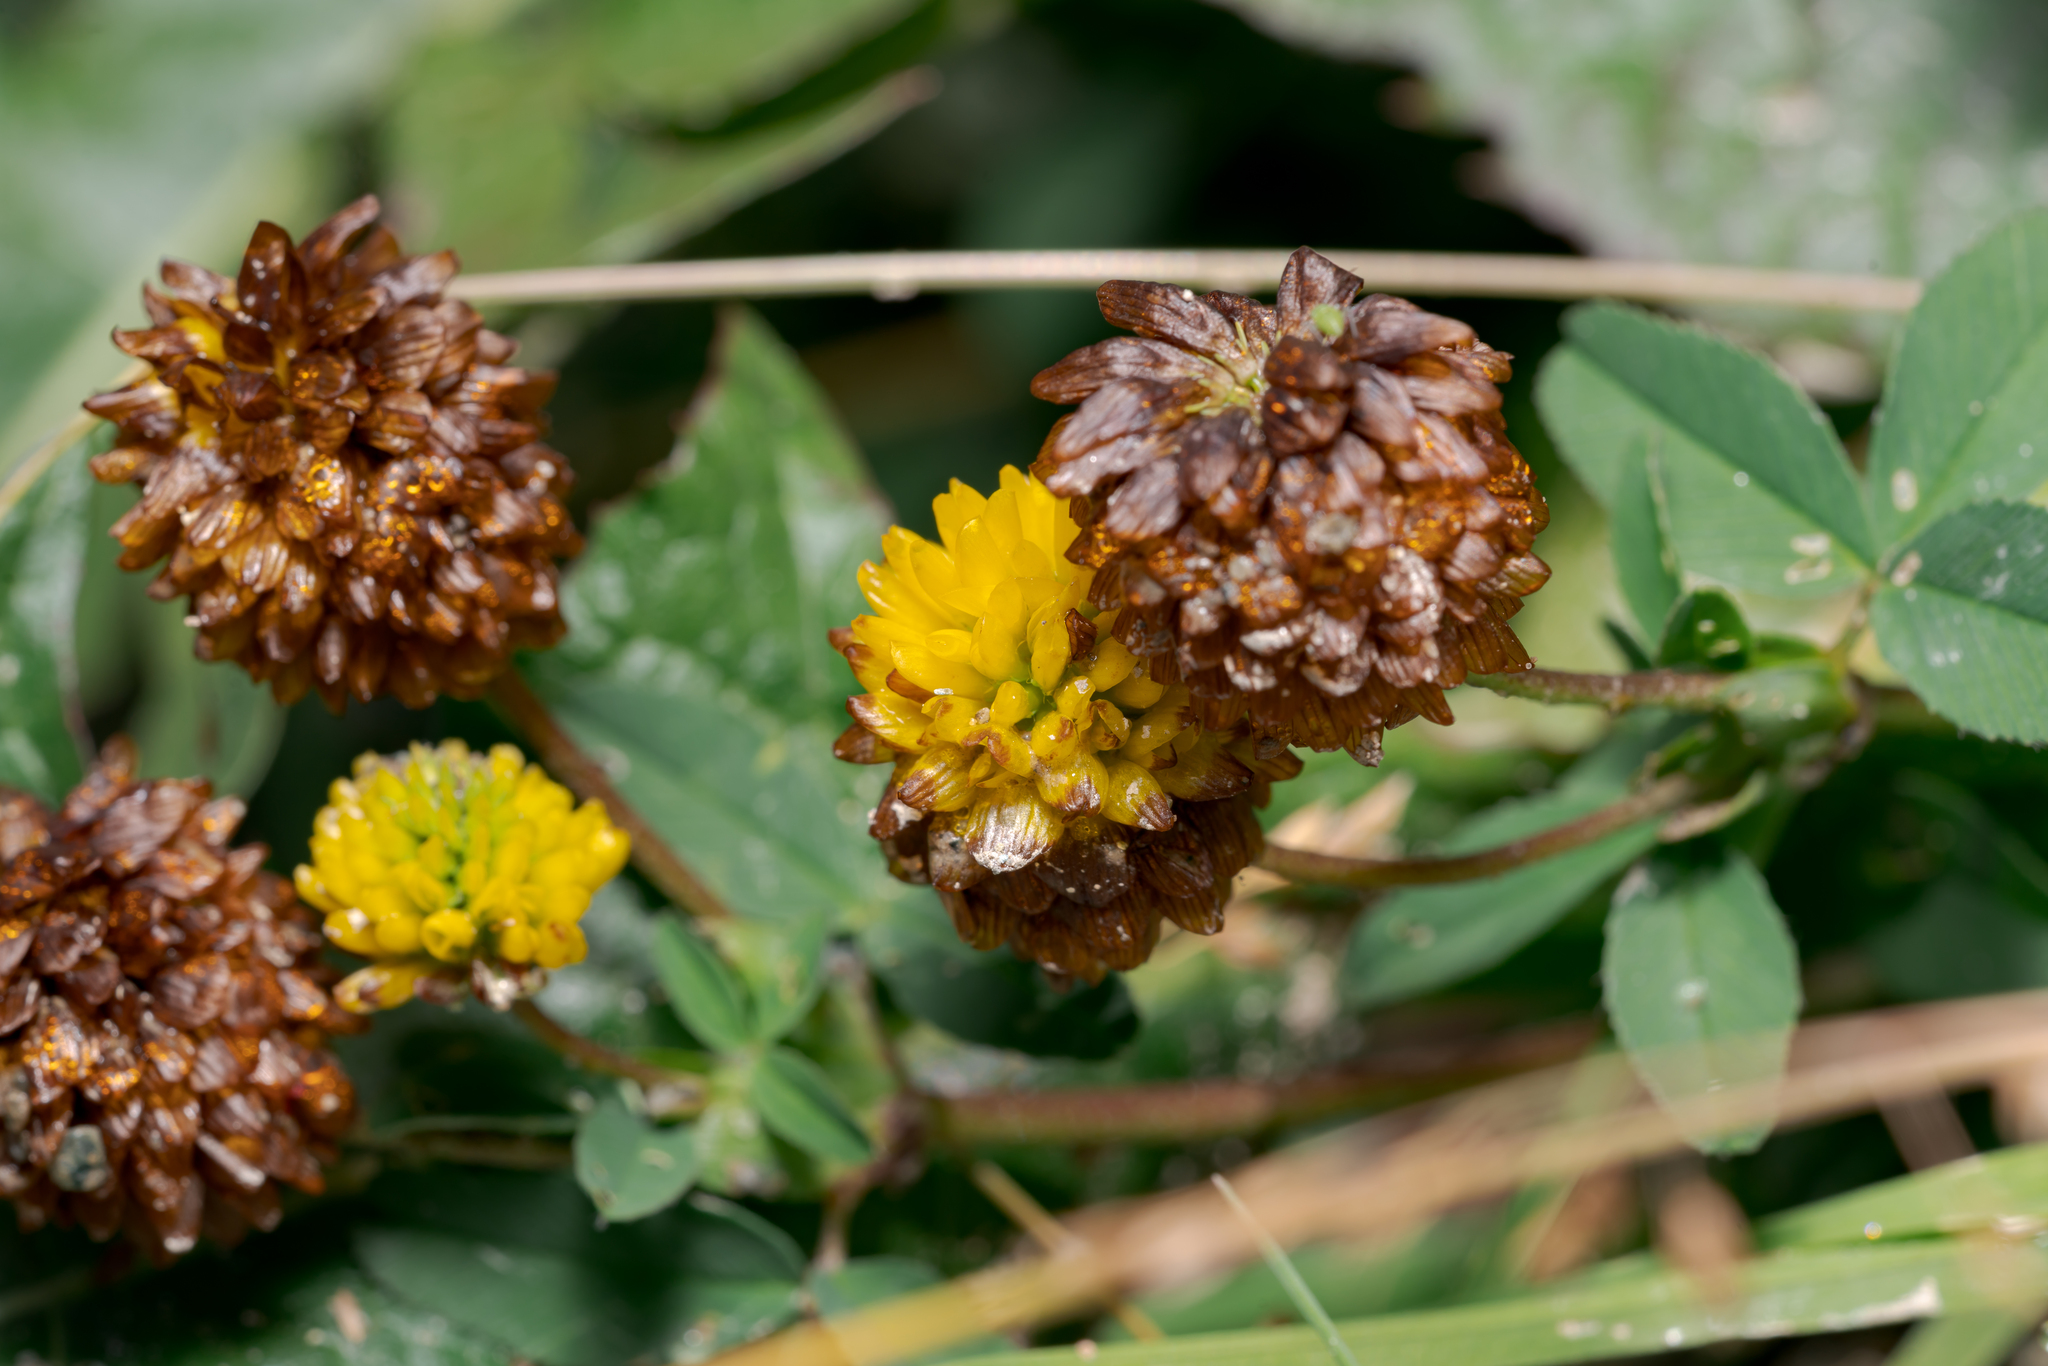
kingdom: Plantae
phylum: Tracheophyta
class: Magnoliopsida
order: Fabales
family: Fabaceae
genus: Trifolium
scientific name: Trifolium badium
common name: Brown clover
